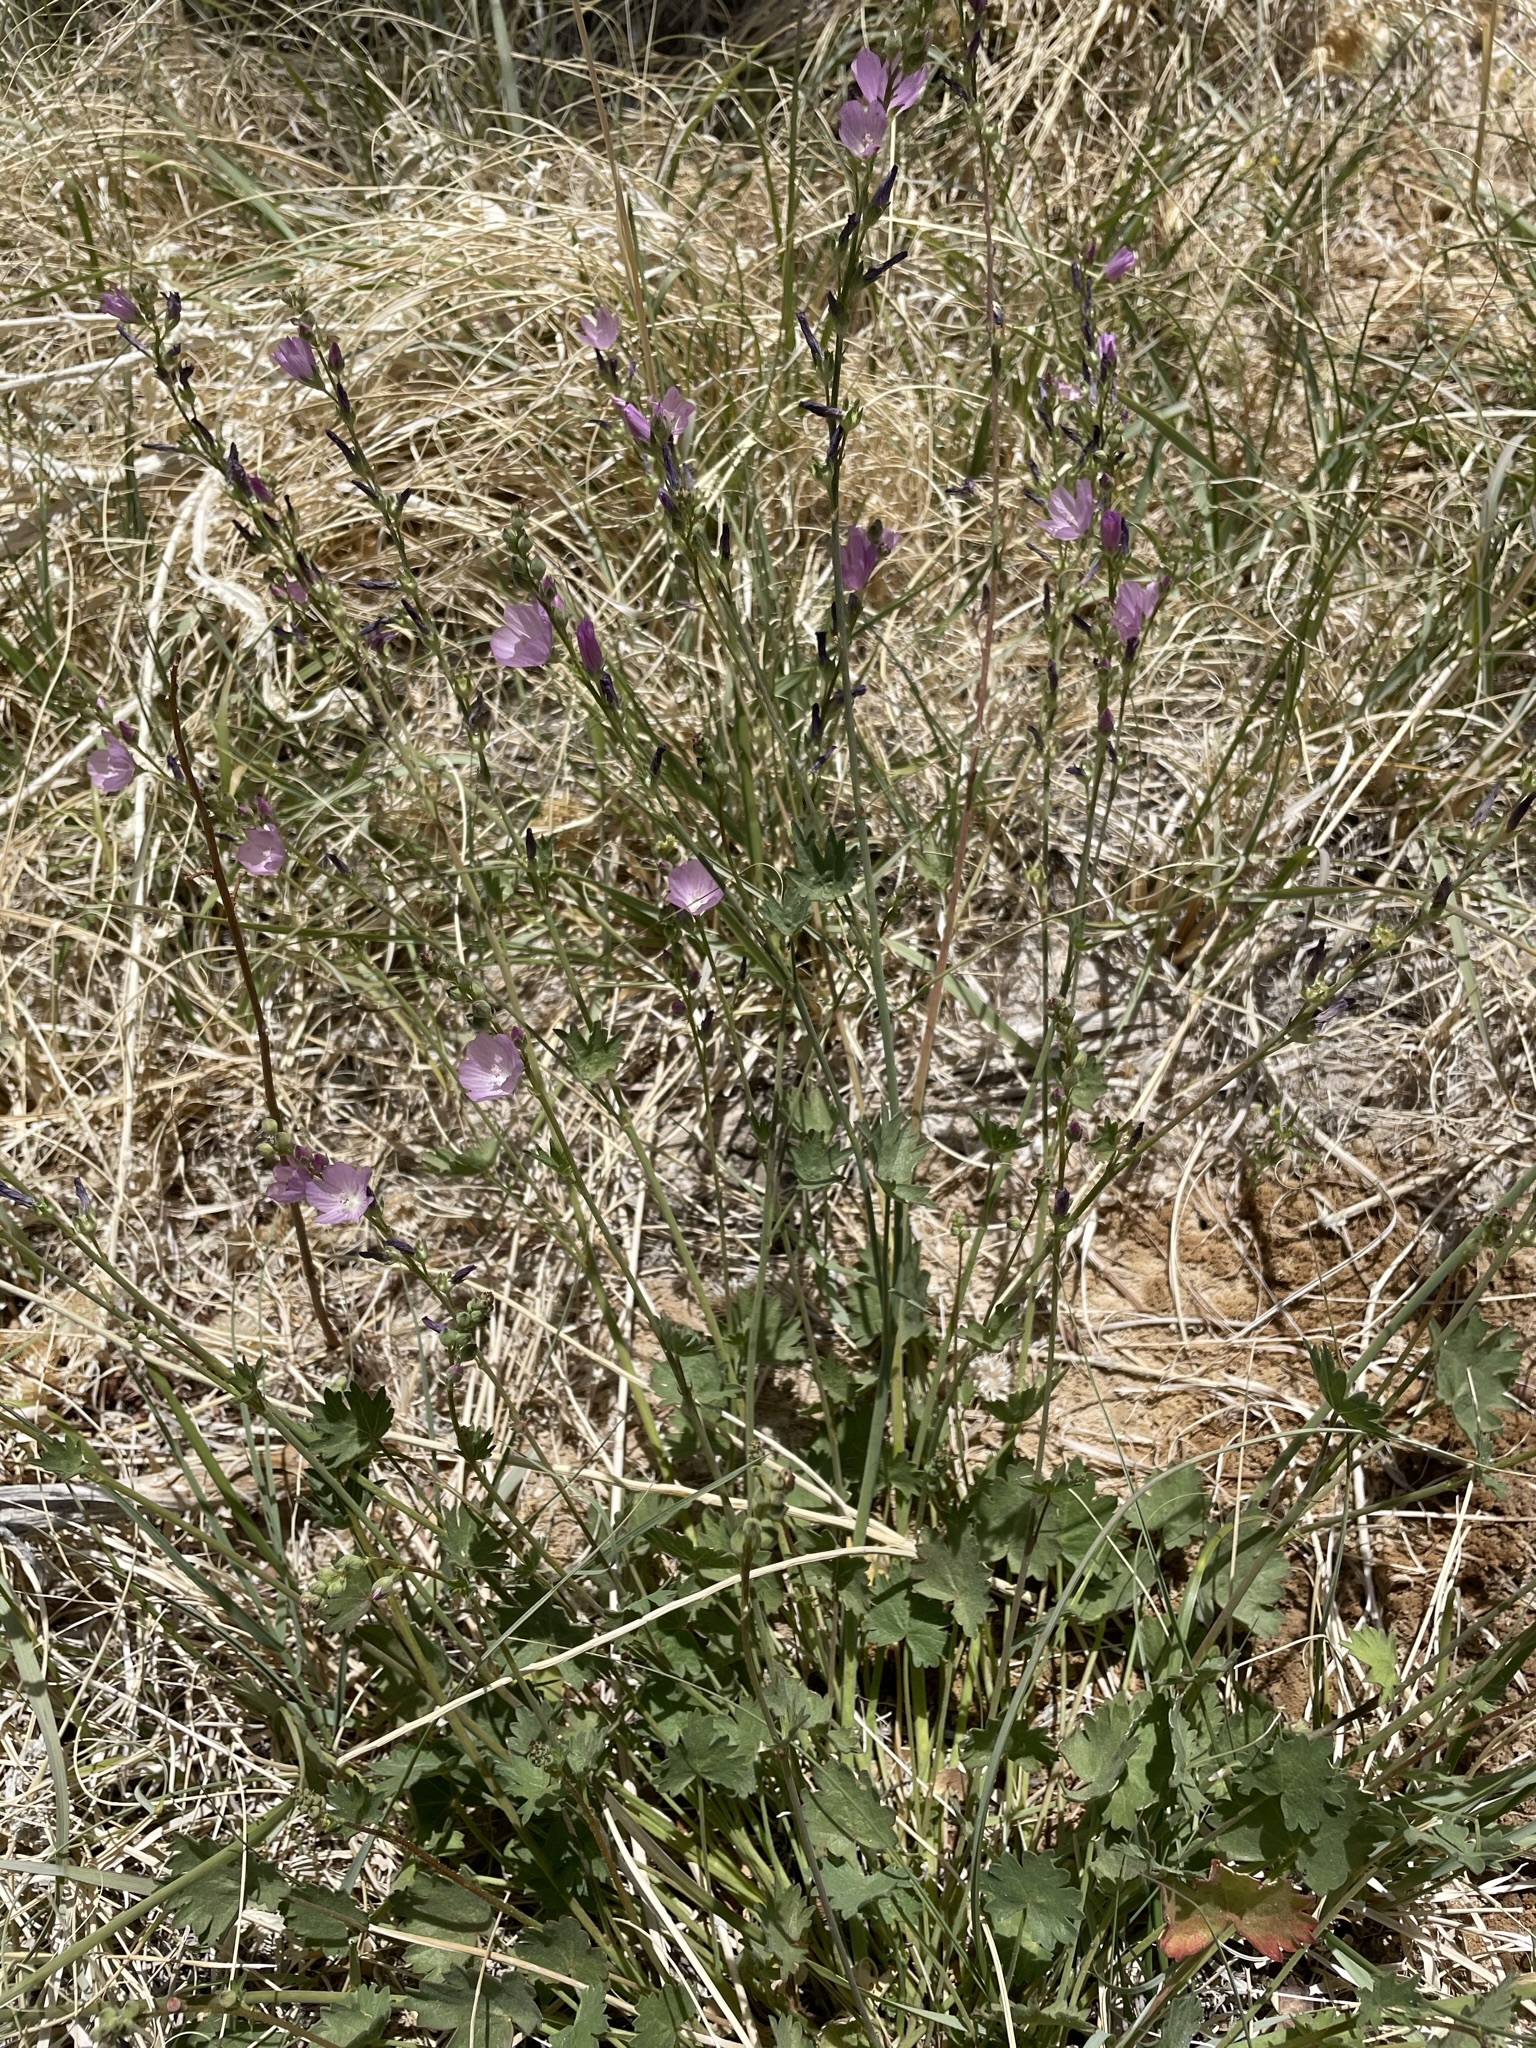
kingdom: Plantae
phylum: Tracheophyta
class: Magnoliopsida
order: Malvales
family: Malvaceae
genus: Sidalcea
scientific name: Sidalcea covillei
